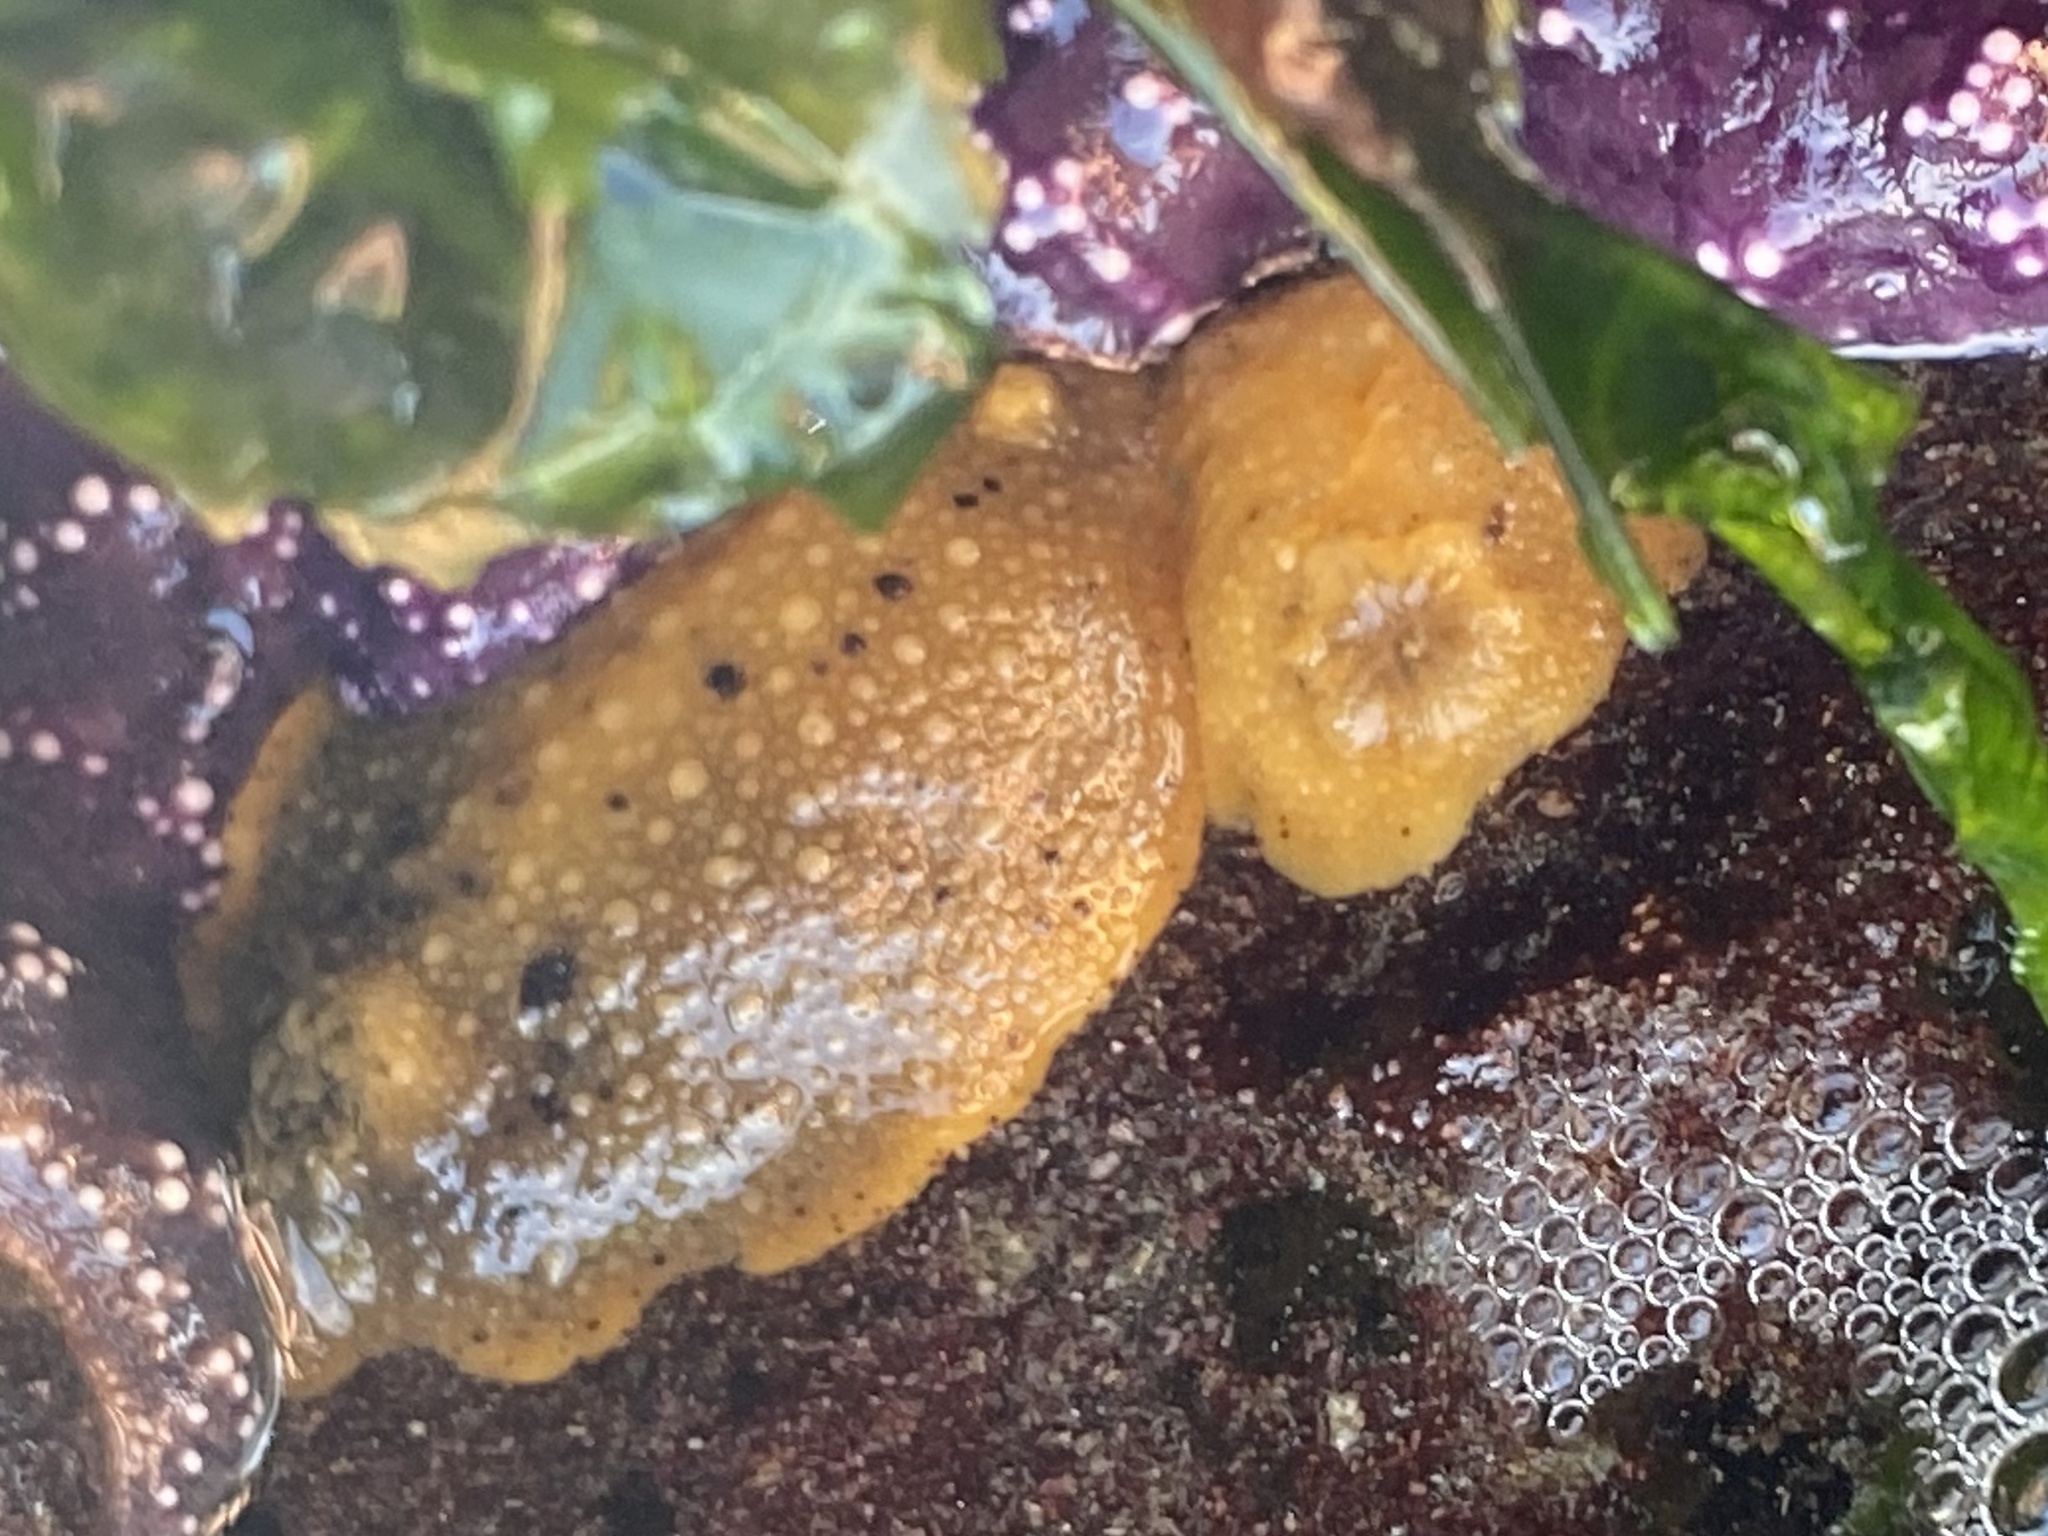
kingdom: Animalia
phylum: Mollusca
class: Gastropoda
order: Nudibranchia
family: Dorididae
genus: Doris
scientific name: Doris montereyensis
